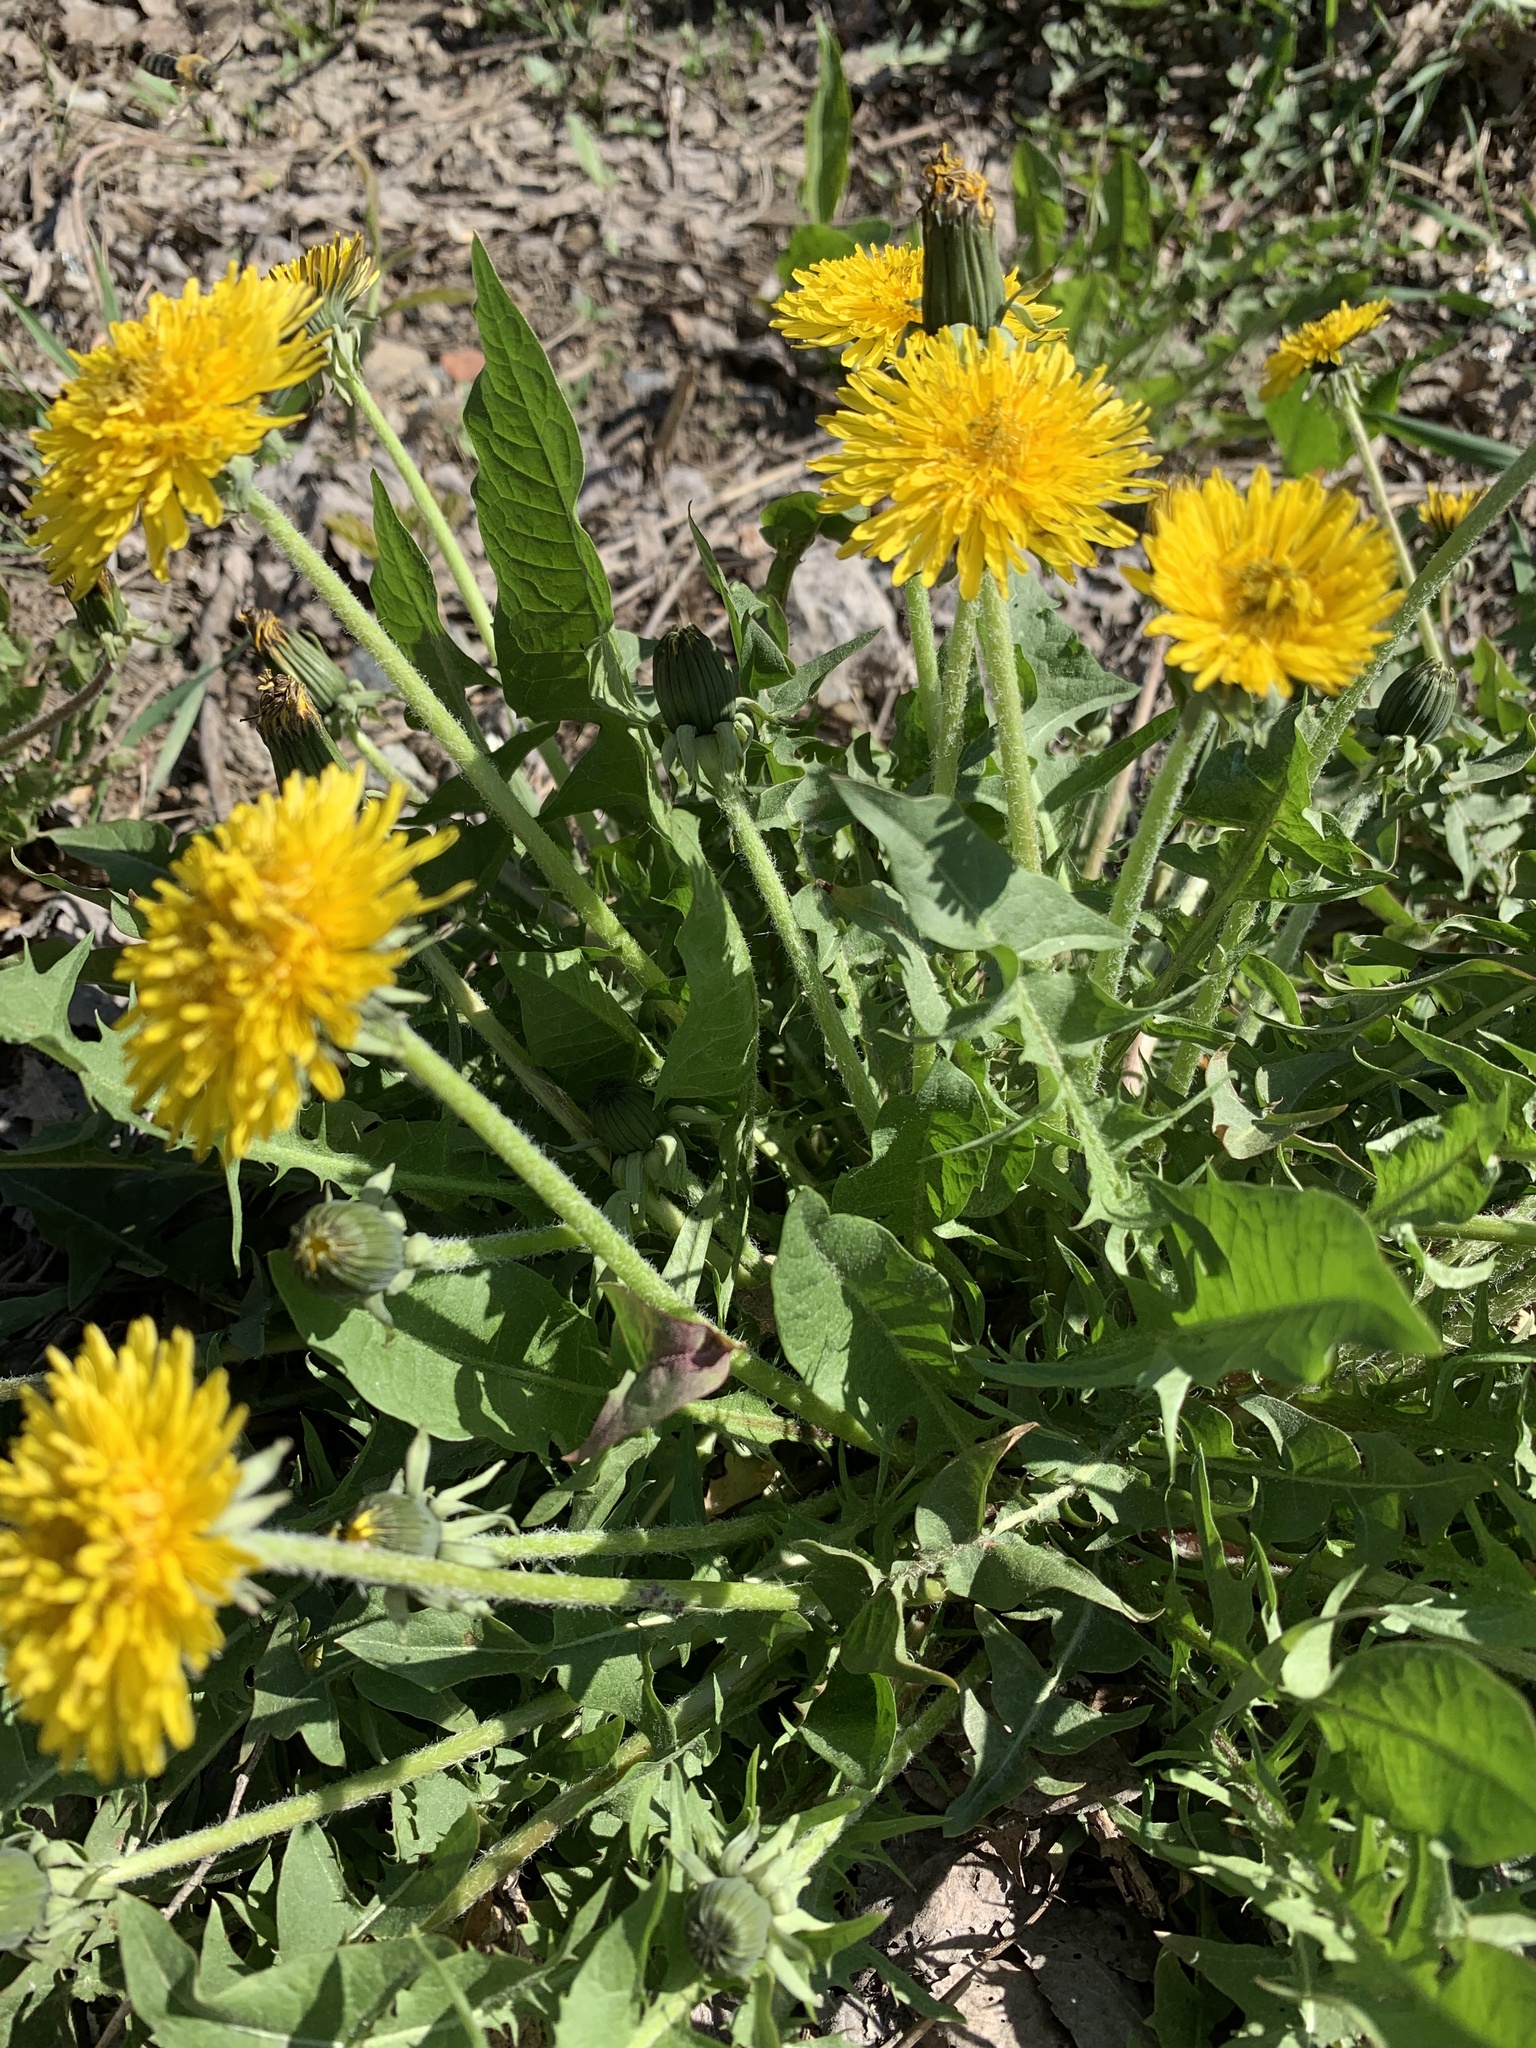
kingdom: Plantae
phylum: Tracheophyta
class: Magnoliopsida
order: Asterales
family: Asteraceae
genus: Taraxacum
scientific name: Taraxacum officinale
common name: Common dandelion
